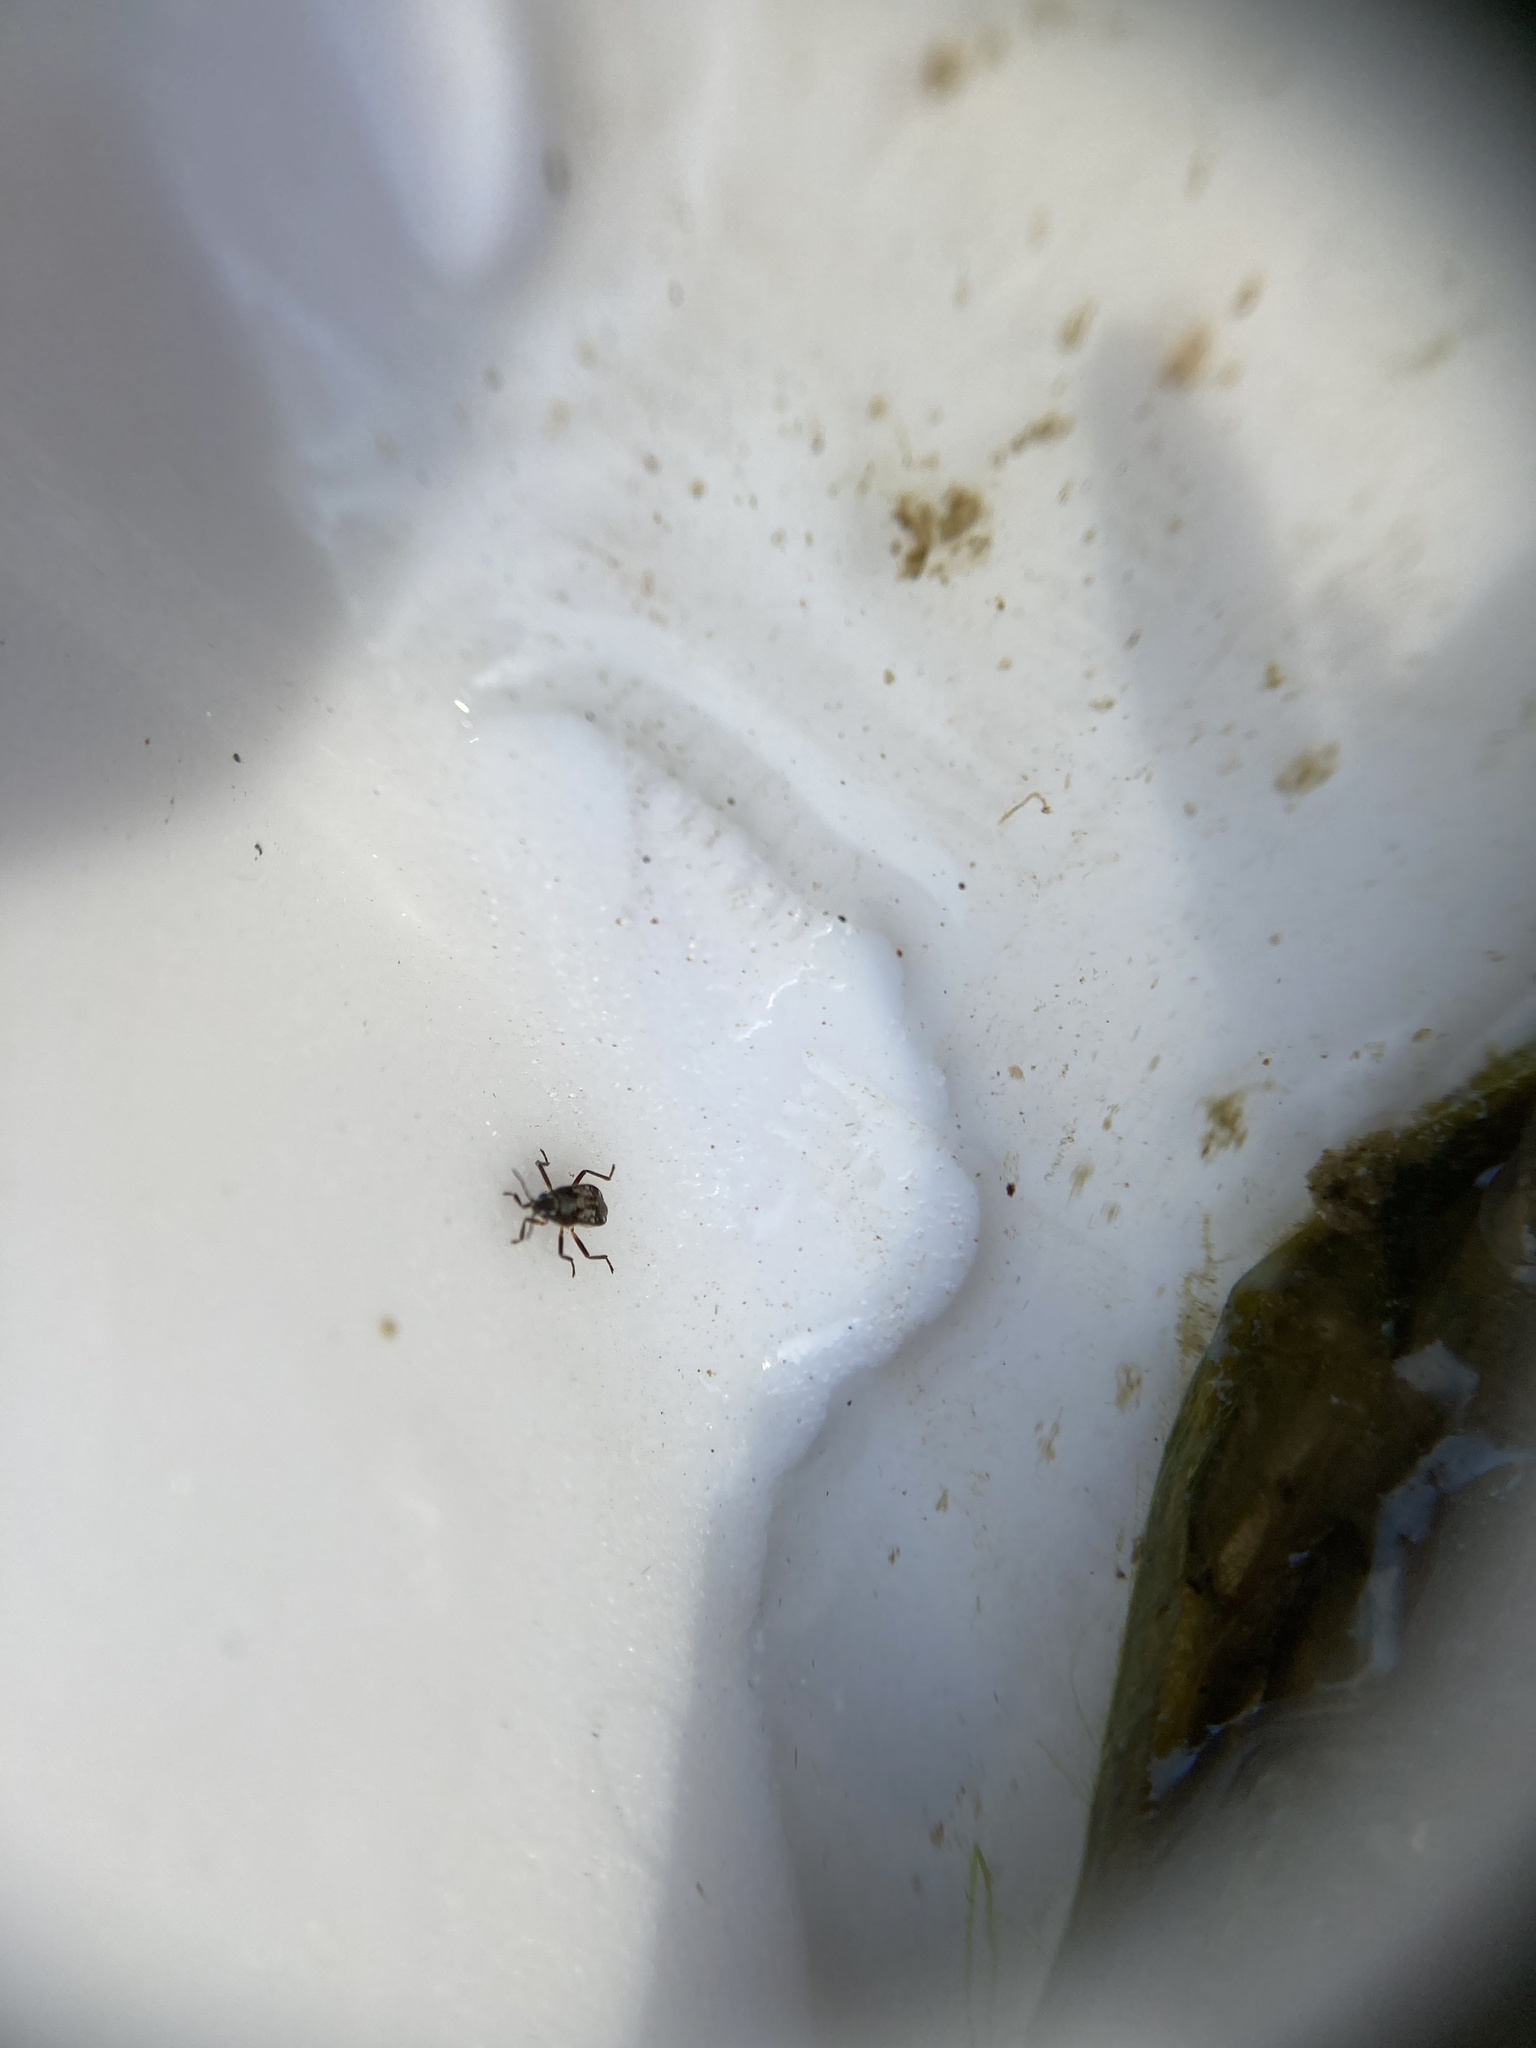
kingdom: Animalia
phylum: Arthropoda
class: Insecta
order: Hemiptera
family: Veliidae
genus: Microvelia
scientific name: Microvelia
